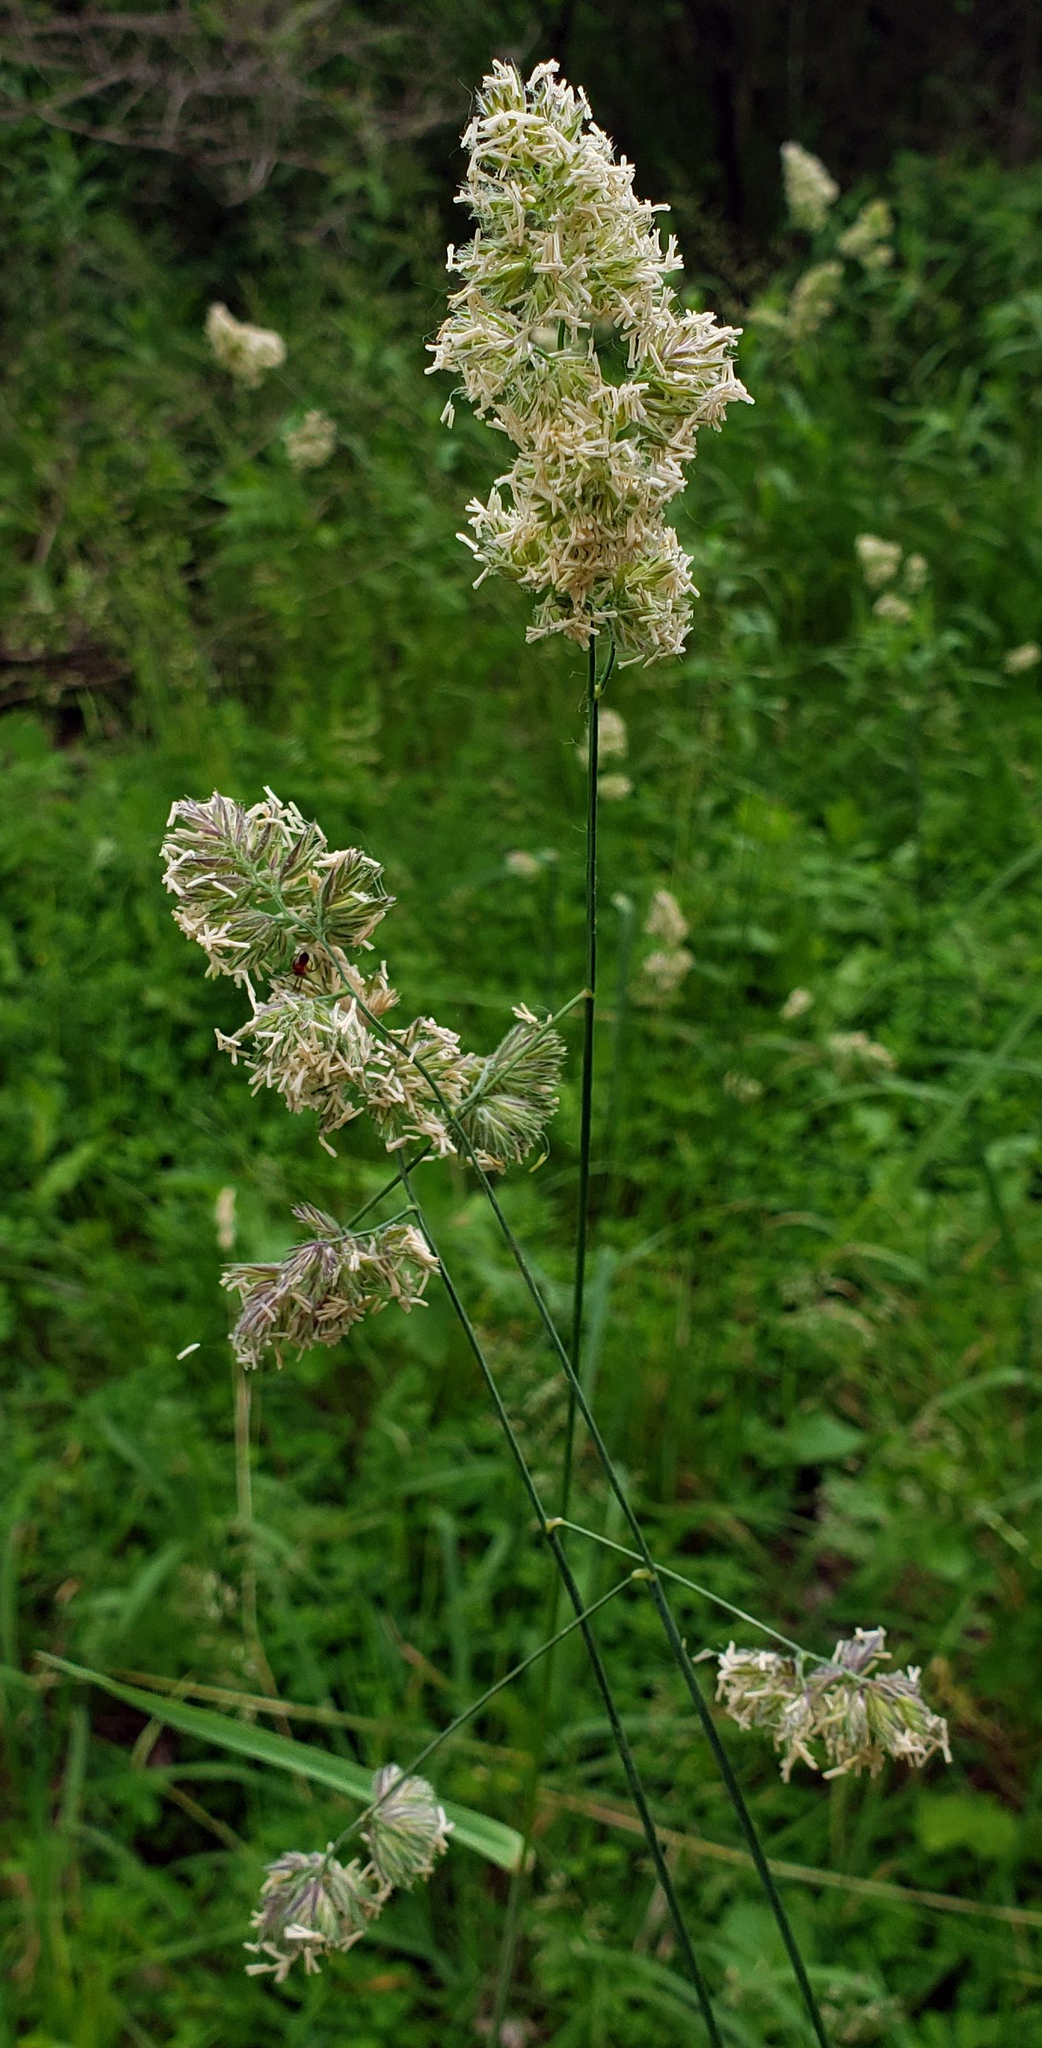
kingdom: Plantae
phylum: Tracheophyta
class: Liliopsida
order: Poales
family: Poaceae
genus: Dactylis
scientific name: Dactylis glomerata
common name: Orchardgrass
